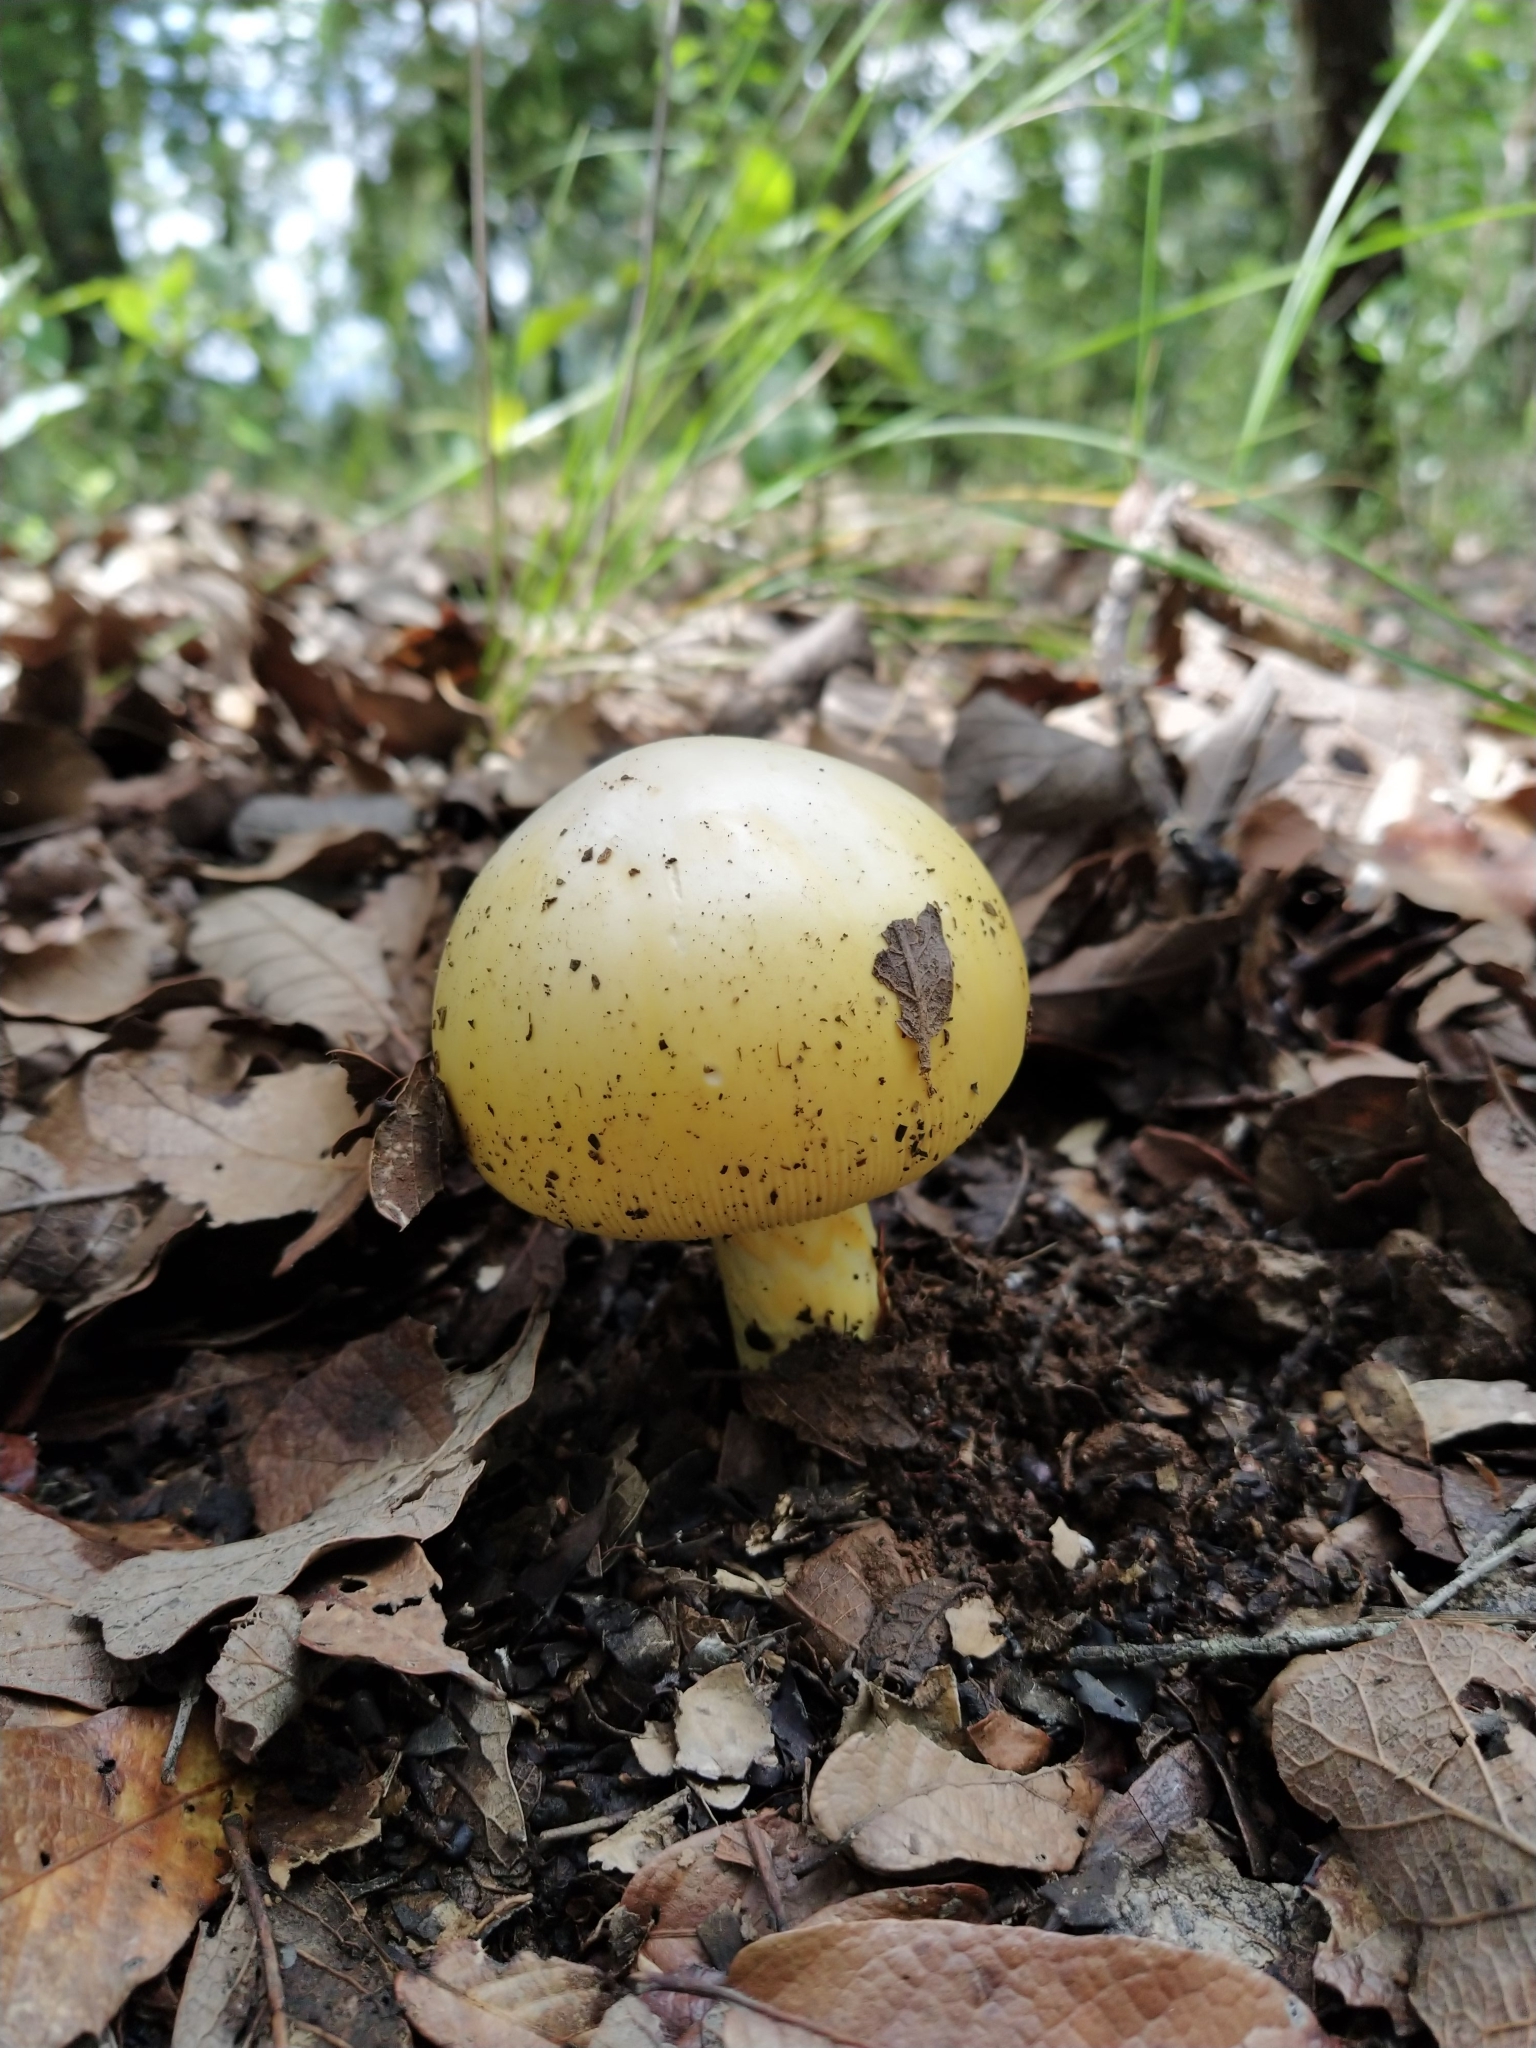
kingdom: Fungi
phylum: Basidiomycota
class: Agaricomycetes
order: Agaricales
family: Amanitaceae
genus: Amanita
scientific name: Amanita laurae
